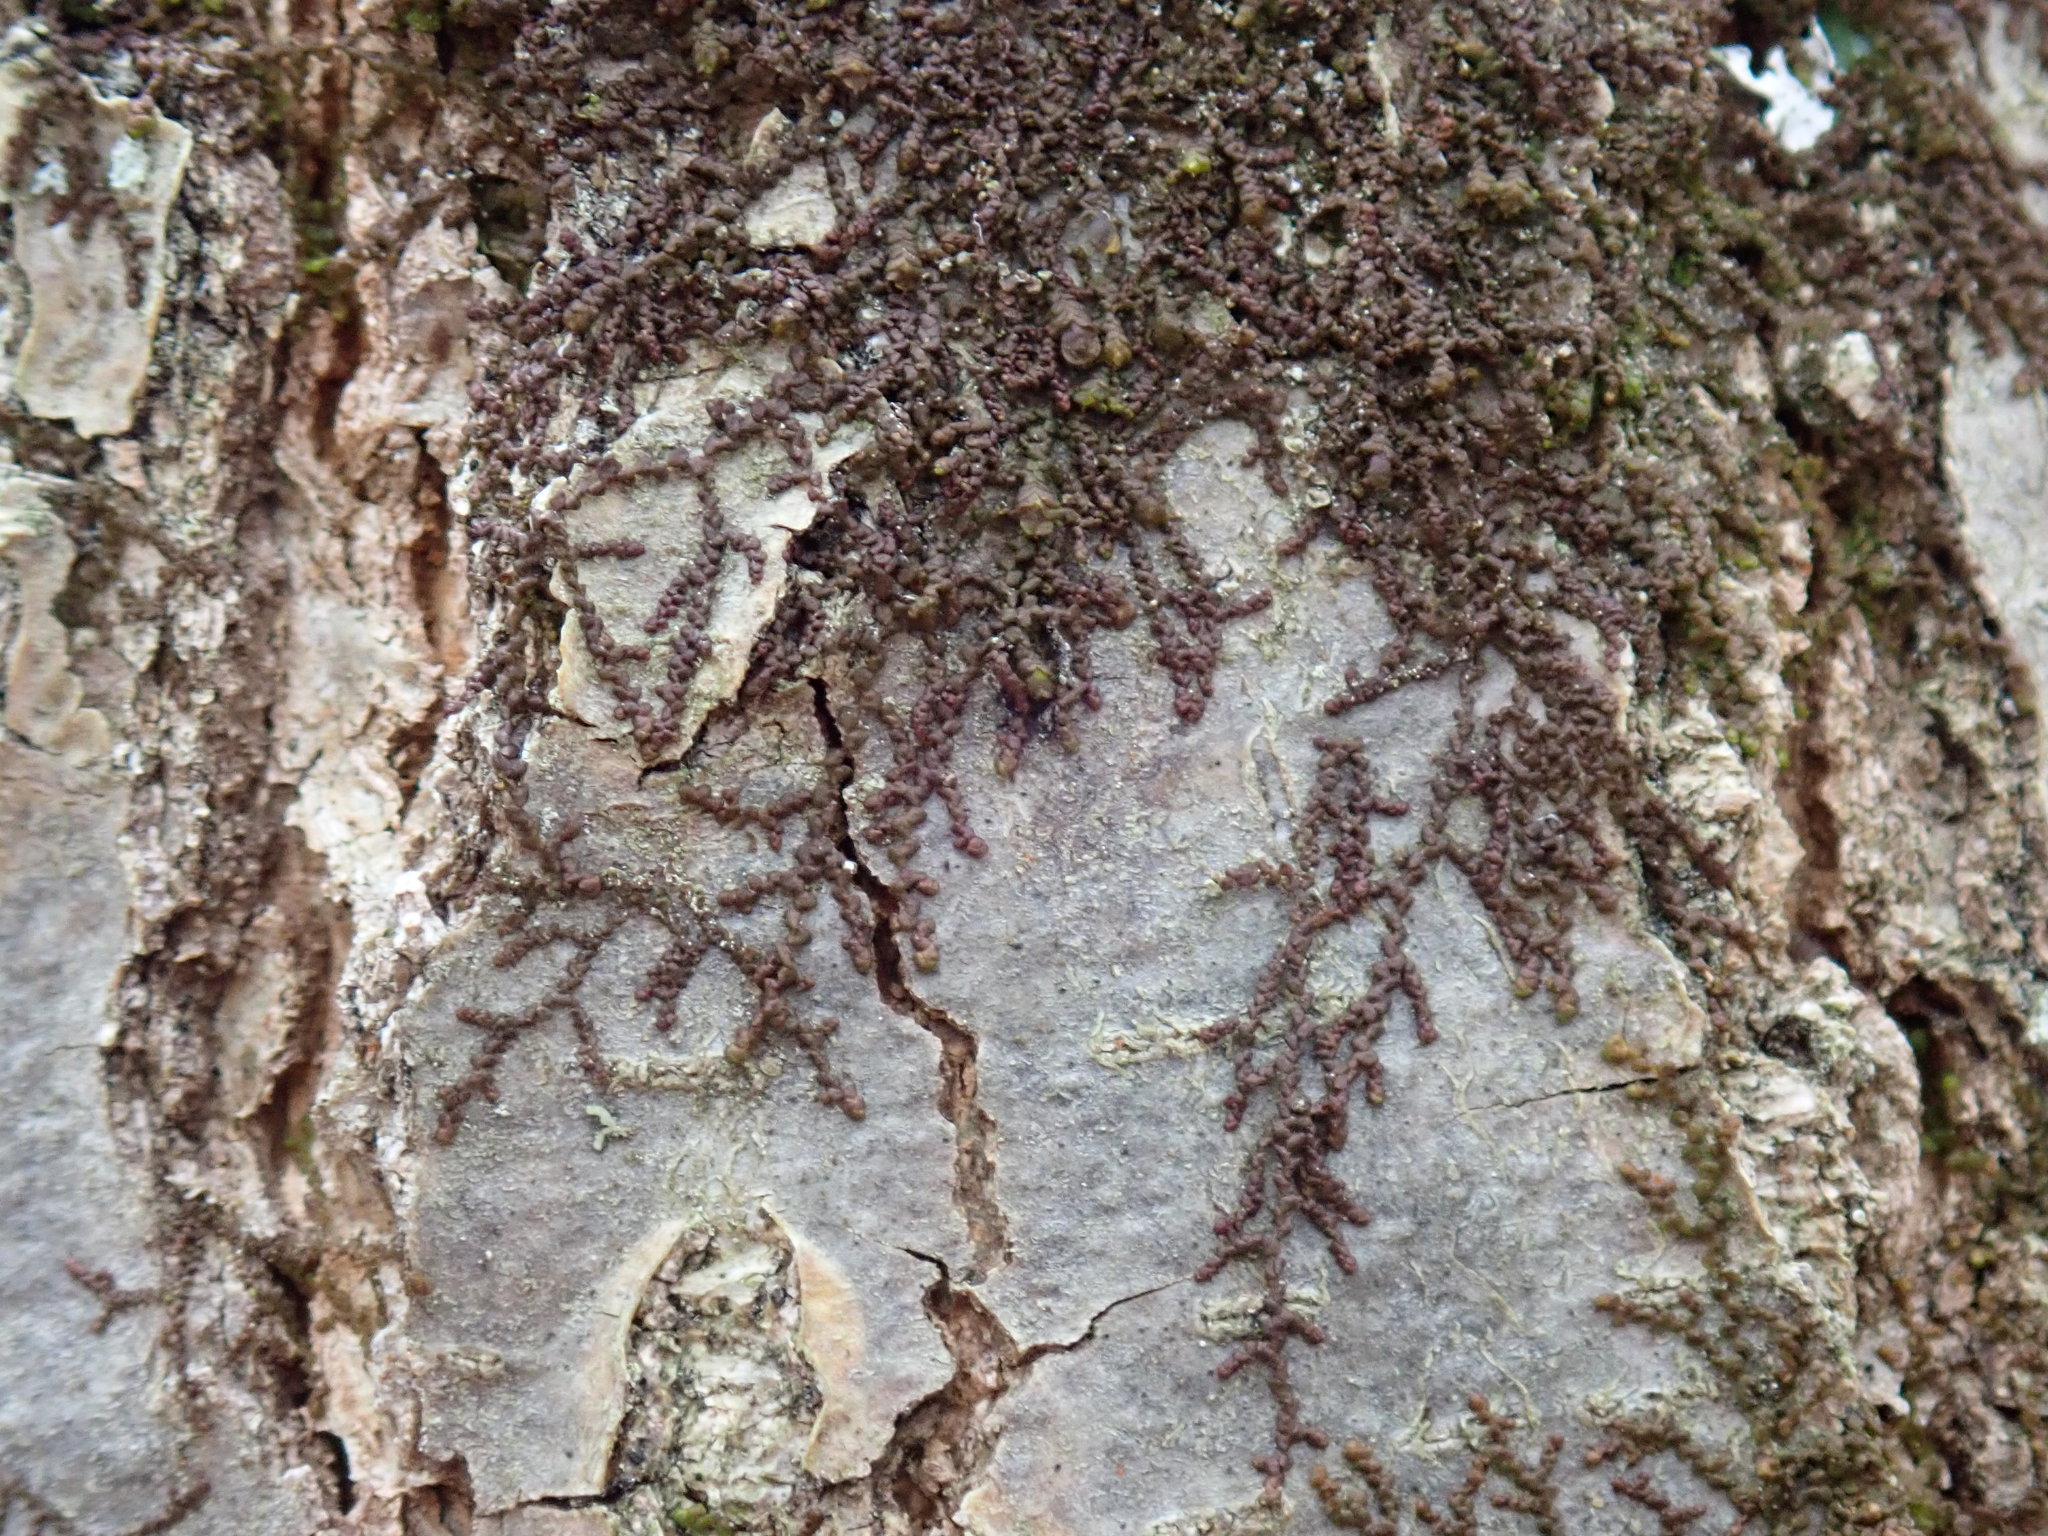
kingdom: Plantae
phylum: Marchantiophyta
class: Jungermanniopsida
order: Porellales
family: Frullaniaceae
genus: Frullania
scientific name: Frullania
